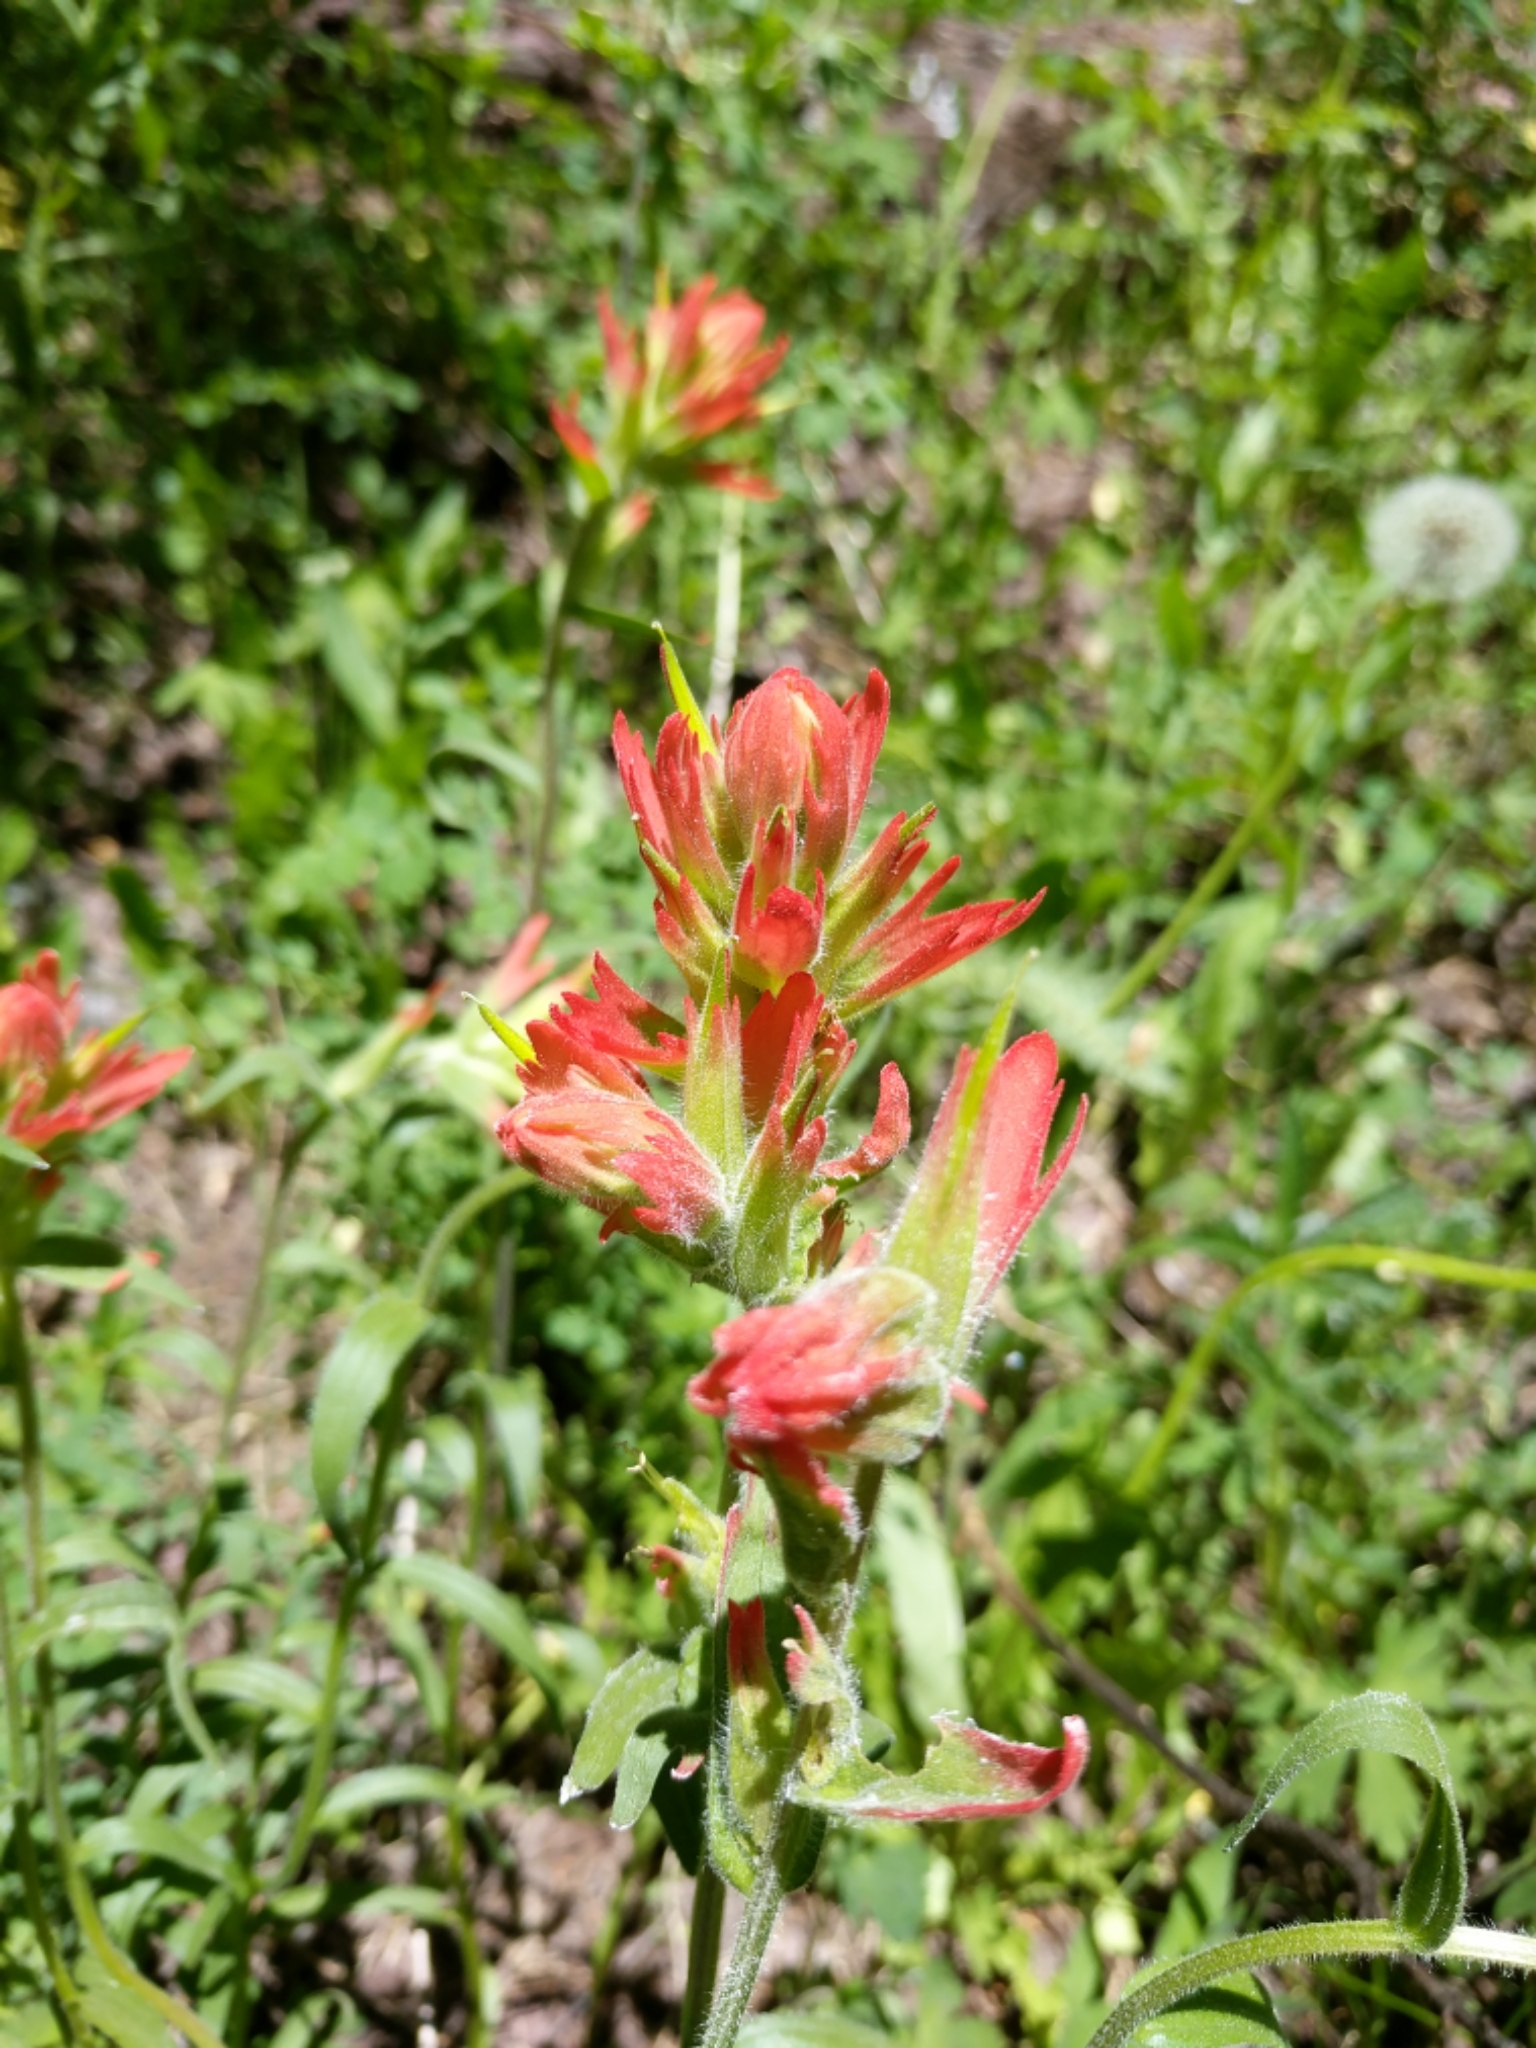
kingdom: Plantae
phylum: Tracheophyta
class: Magnoliopsida
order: Lamiales
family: Orobanchaceae
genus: Castilleja
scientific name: Castilleja miniata
